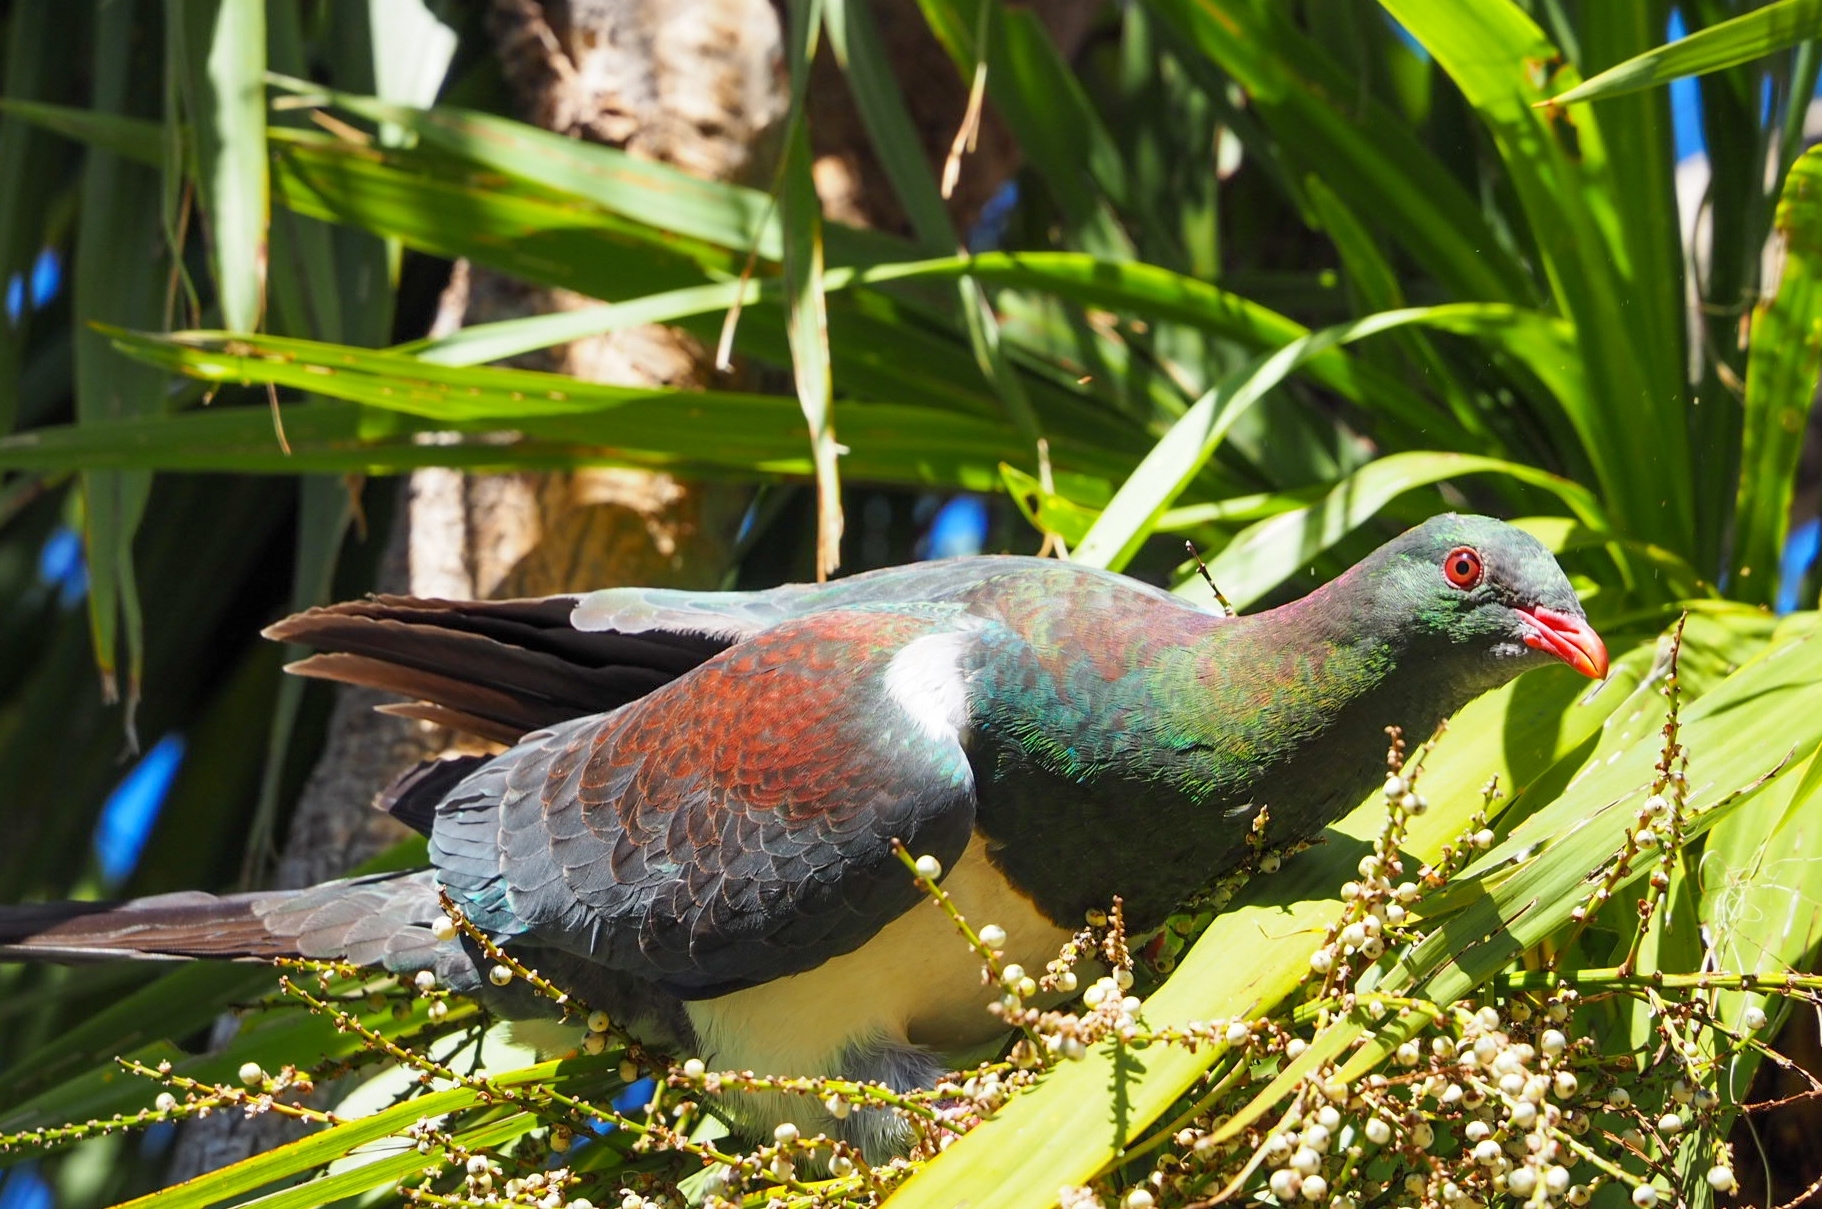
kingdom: Animalia
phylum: Chordata
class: Aves
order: Columbiformes
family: Columbidae
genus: Hemiphaga
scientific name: Hemiphaga novaeseelandiae
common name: New zealand pigeon
